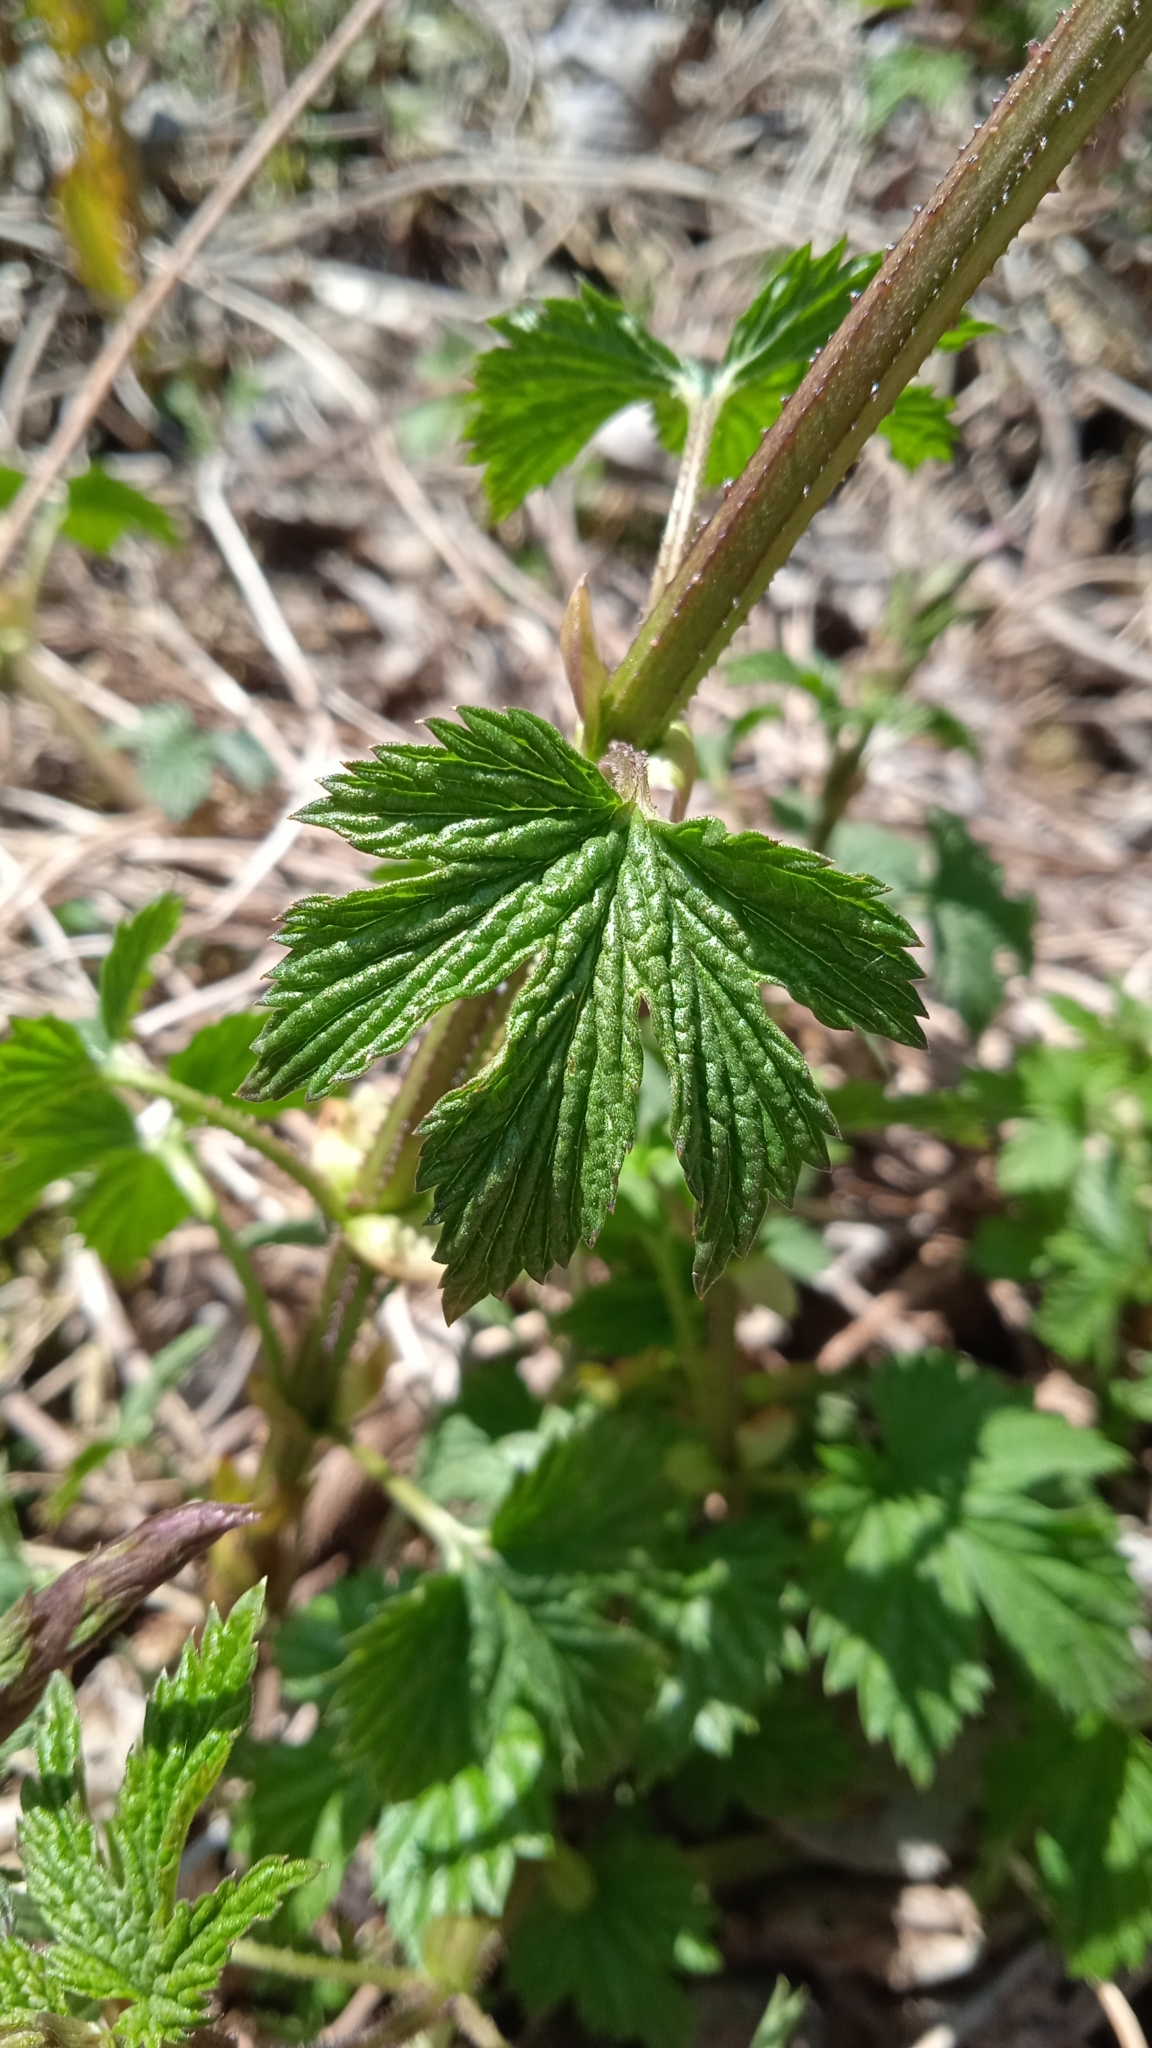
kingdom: Plantae
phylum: Tracheophyta
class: Magnoliopsida
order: Rosales
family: Cannabaceae
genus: Humulus
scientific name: Humulus lupulus
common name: Hop
